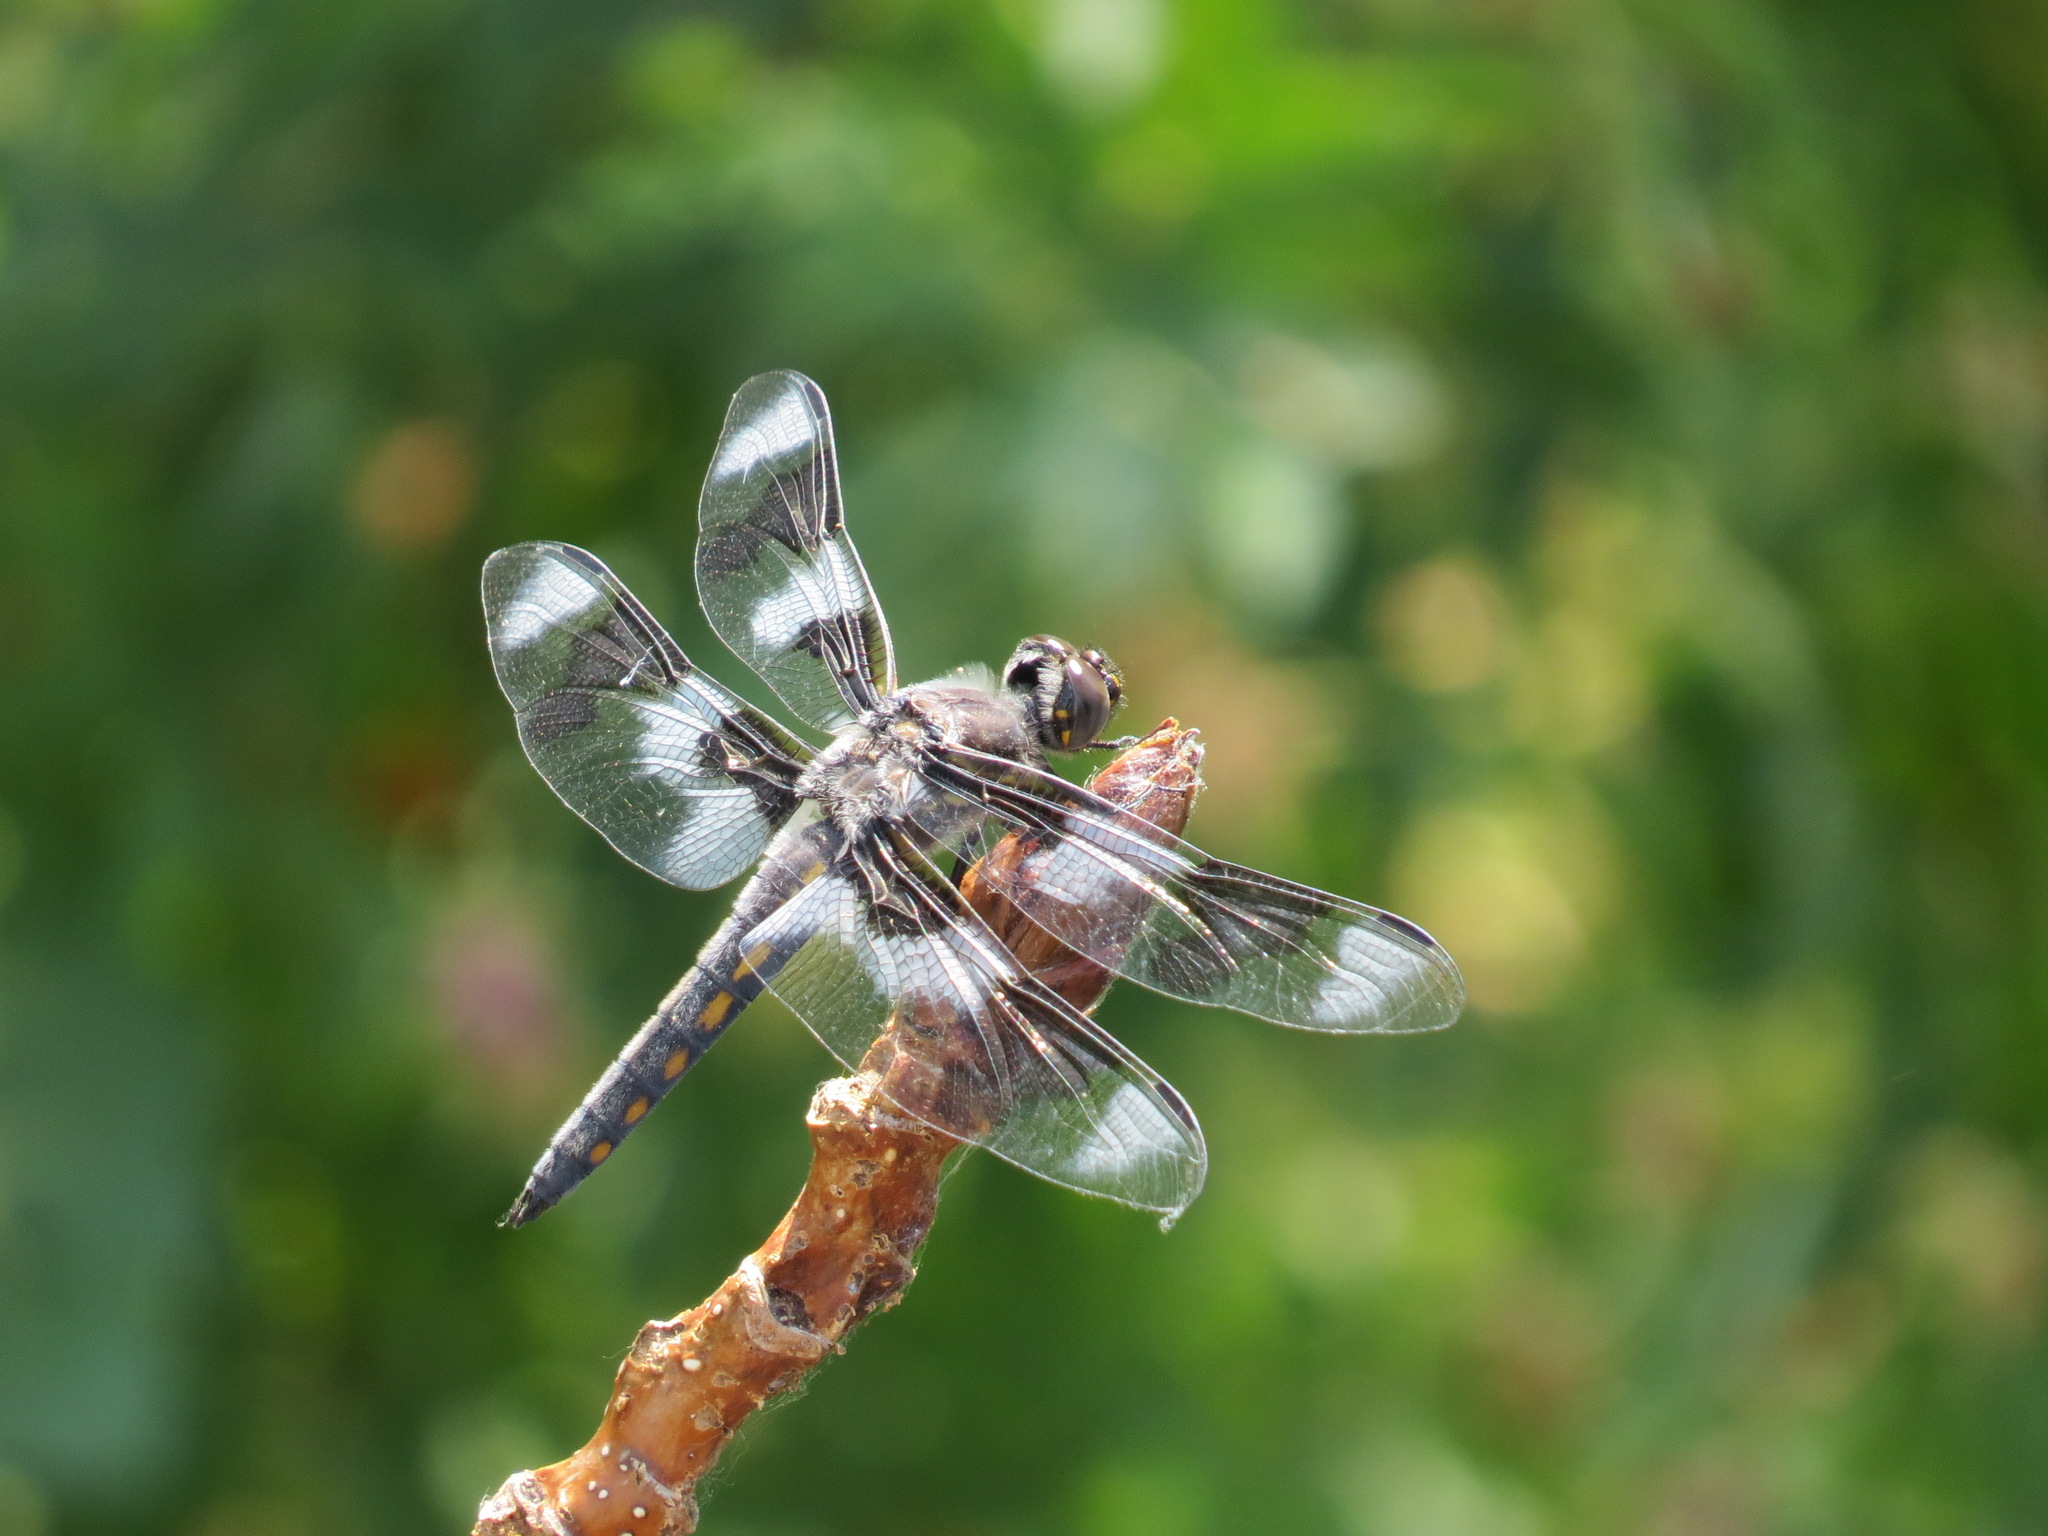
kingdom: Animalia
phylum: Arthropoda
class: Insecta
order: Odonata
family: Libellulidae
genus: Libellula
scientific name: Libellula forensis
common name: Eight-spotted skimmer
